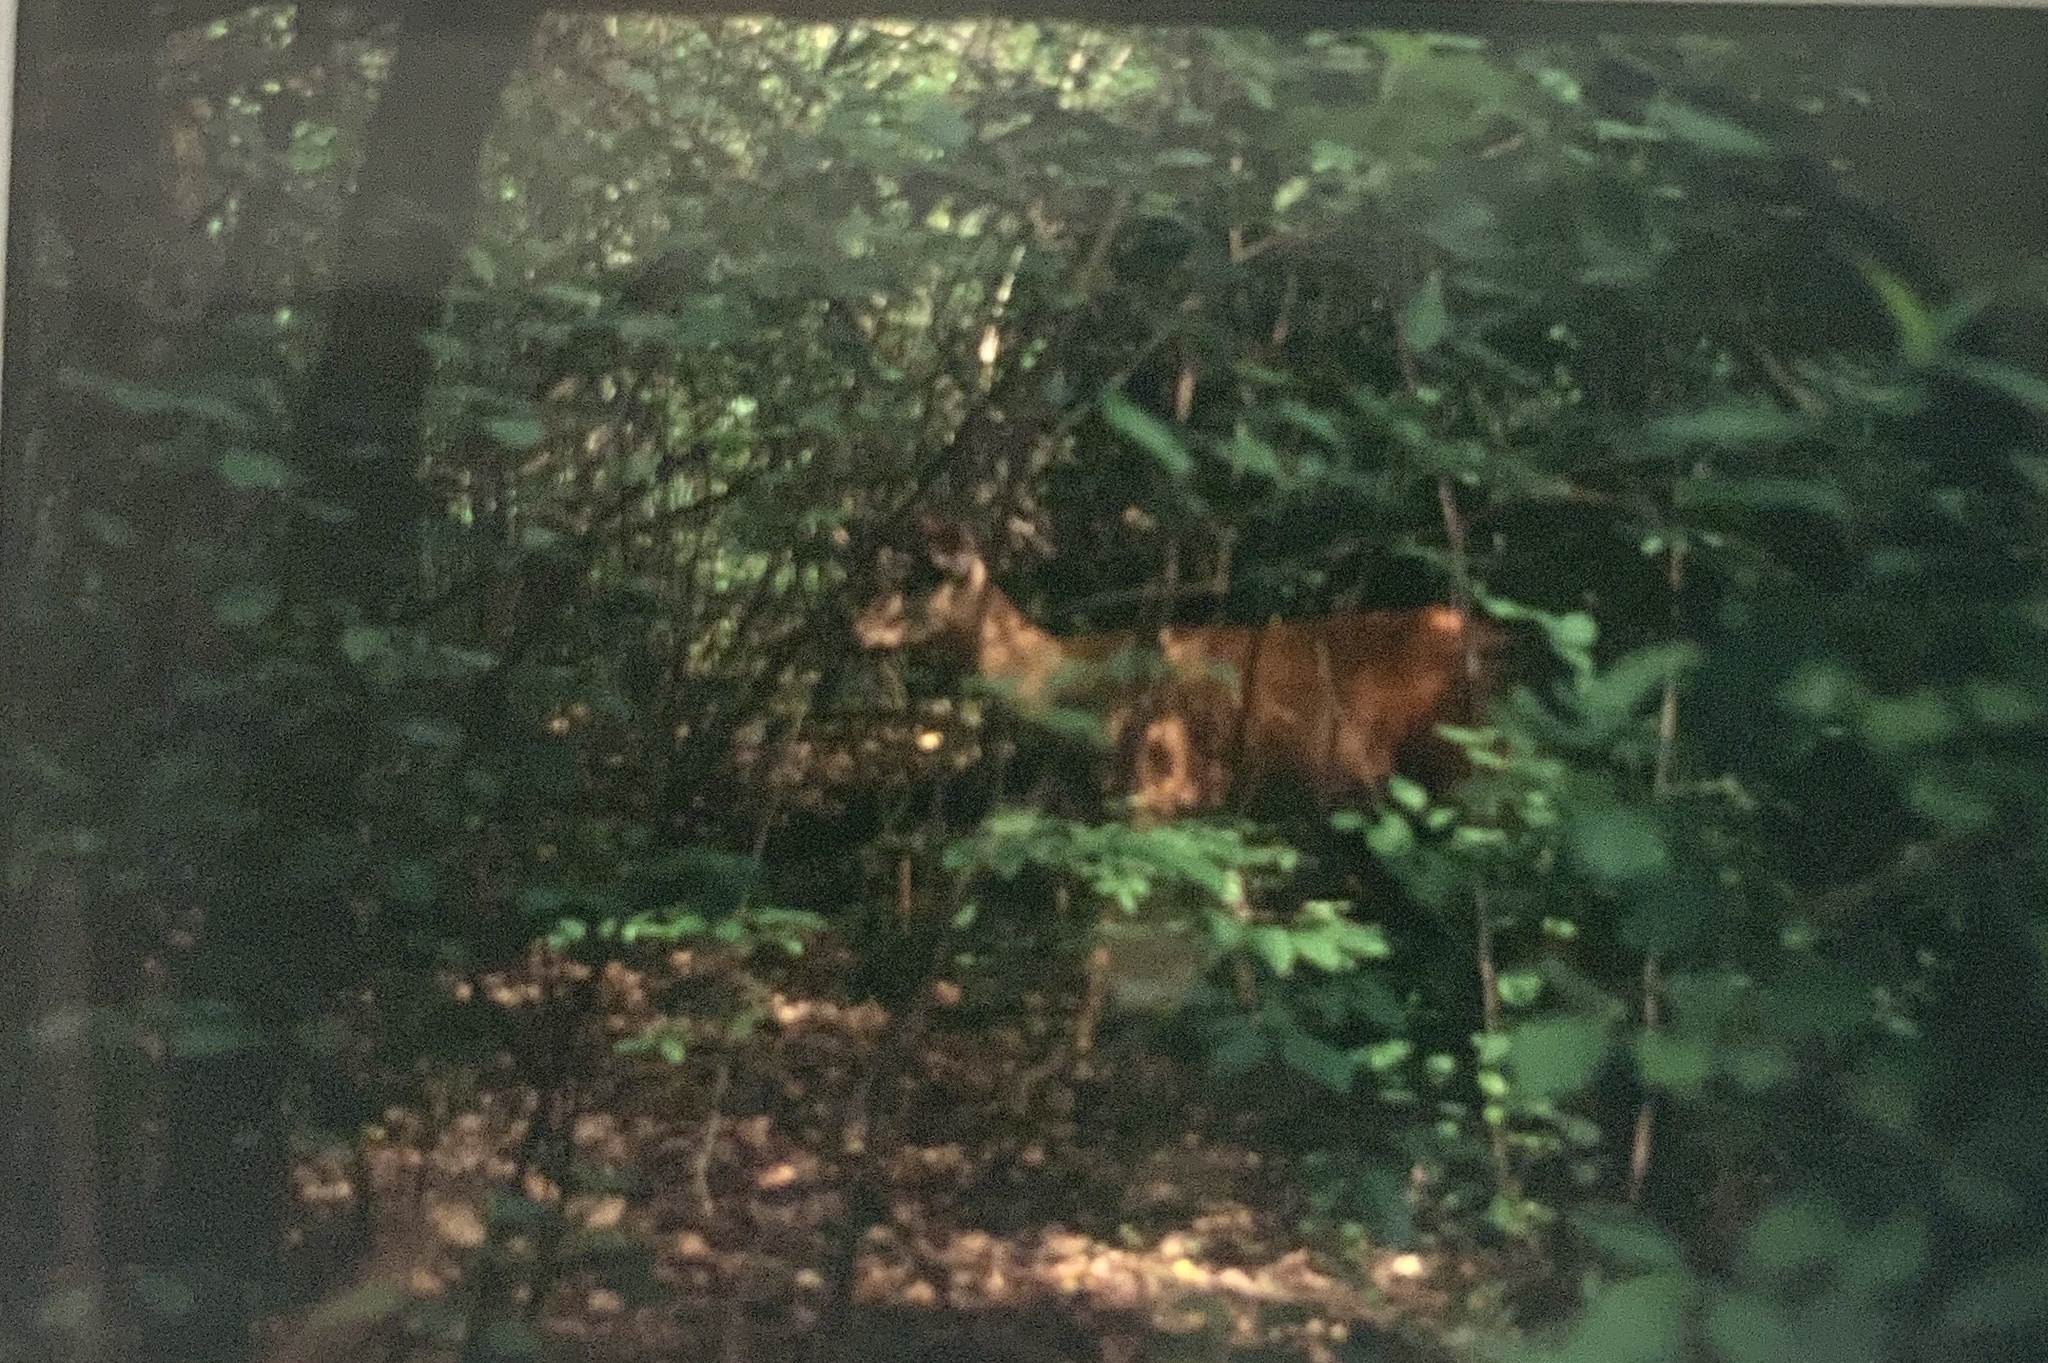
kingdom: Animalia
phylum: Chordata
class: Mammalia
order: Artiodactyla
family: Cervidae
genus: Odocoileus
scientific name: Odocoileus virginianus
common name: White-tailed deer
